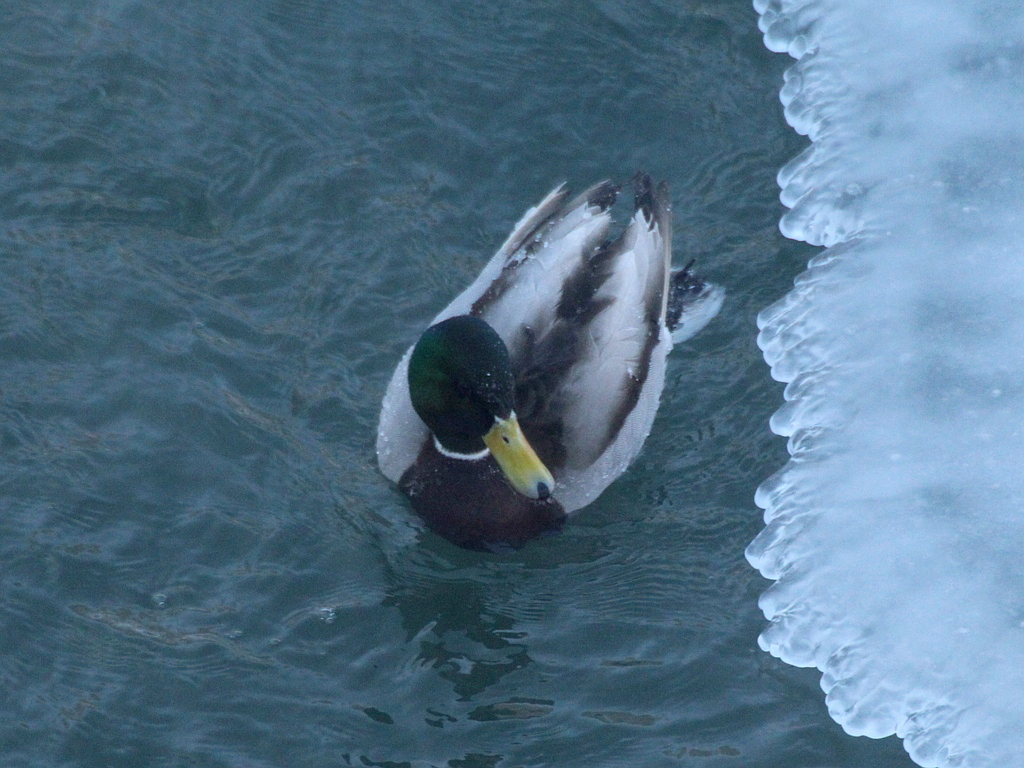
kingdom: Animalia
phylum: Chordata
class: Aves
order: Anseriformes
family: Anatidae
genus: Anas
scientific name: Anas platyrhynchos
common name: Mallard
